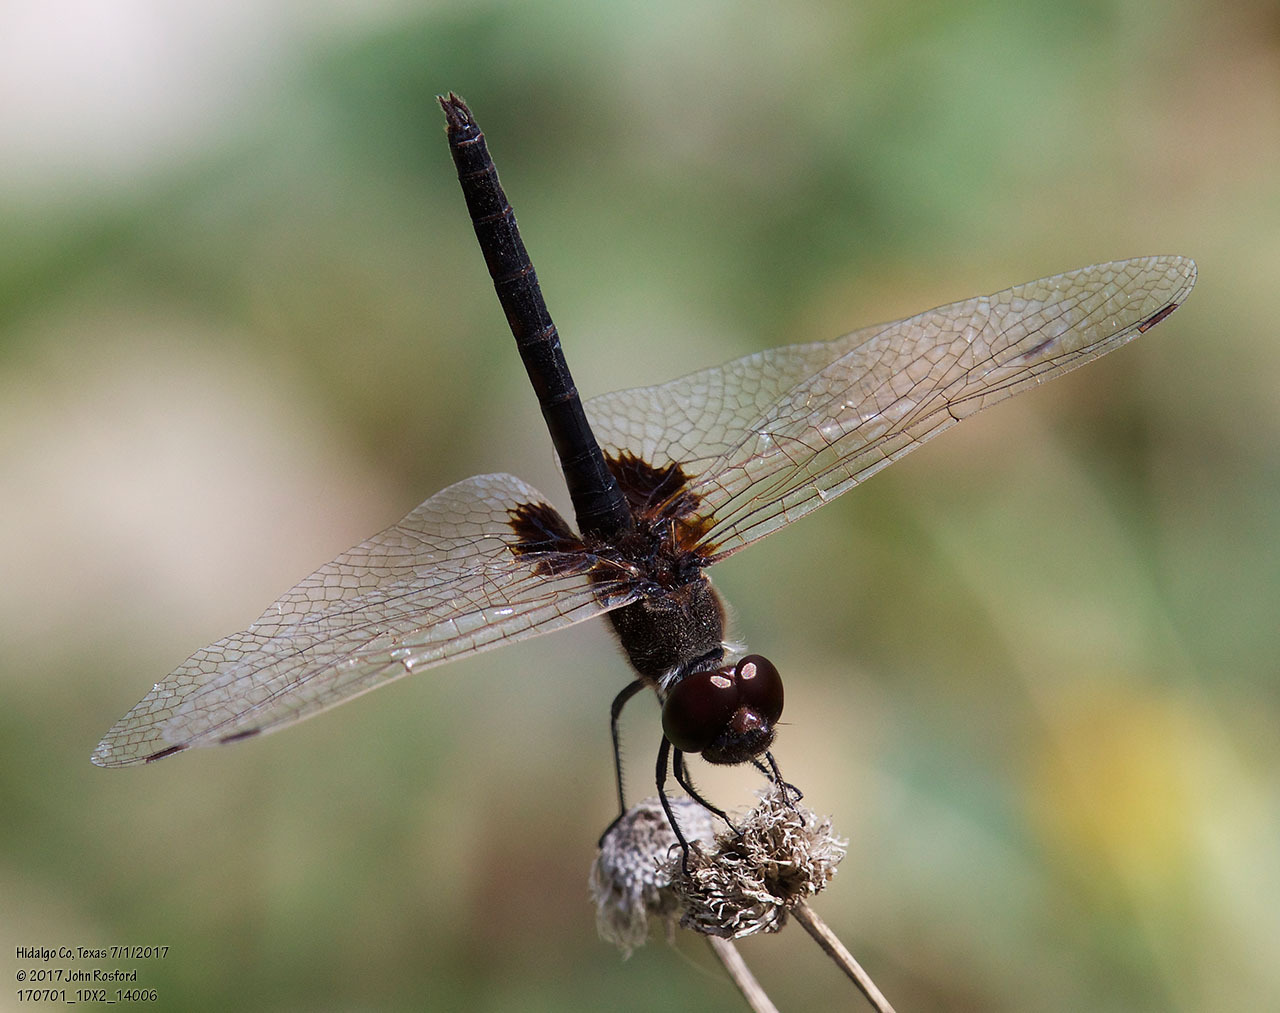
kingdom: Animalia
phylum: Arthropoda
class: Insecta
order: Odonata
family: Libellulidae
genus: Macrodiplax
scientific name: Macrodiplax balteata
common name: Marl pennant
